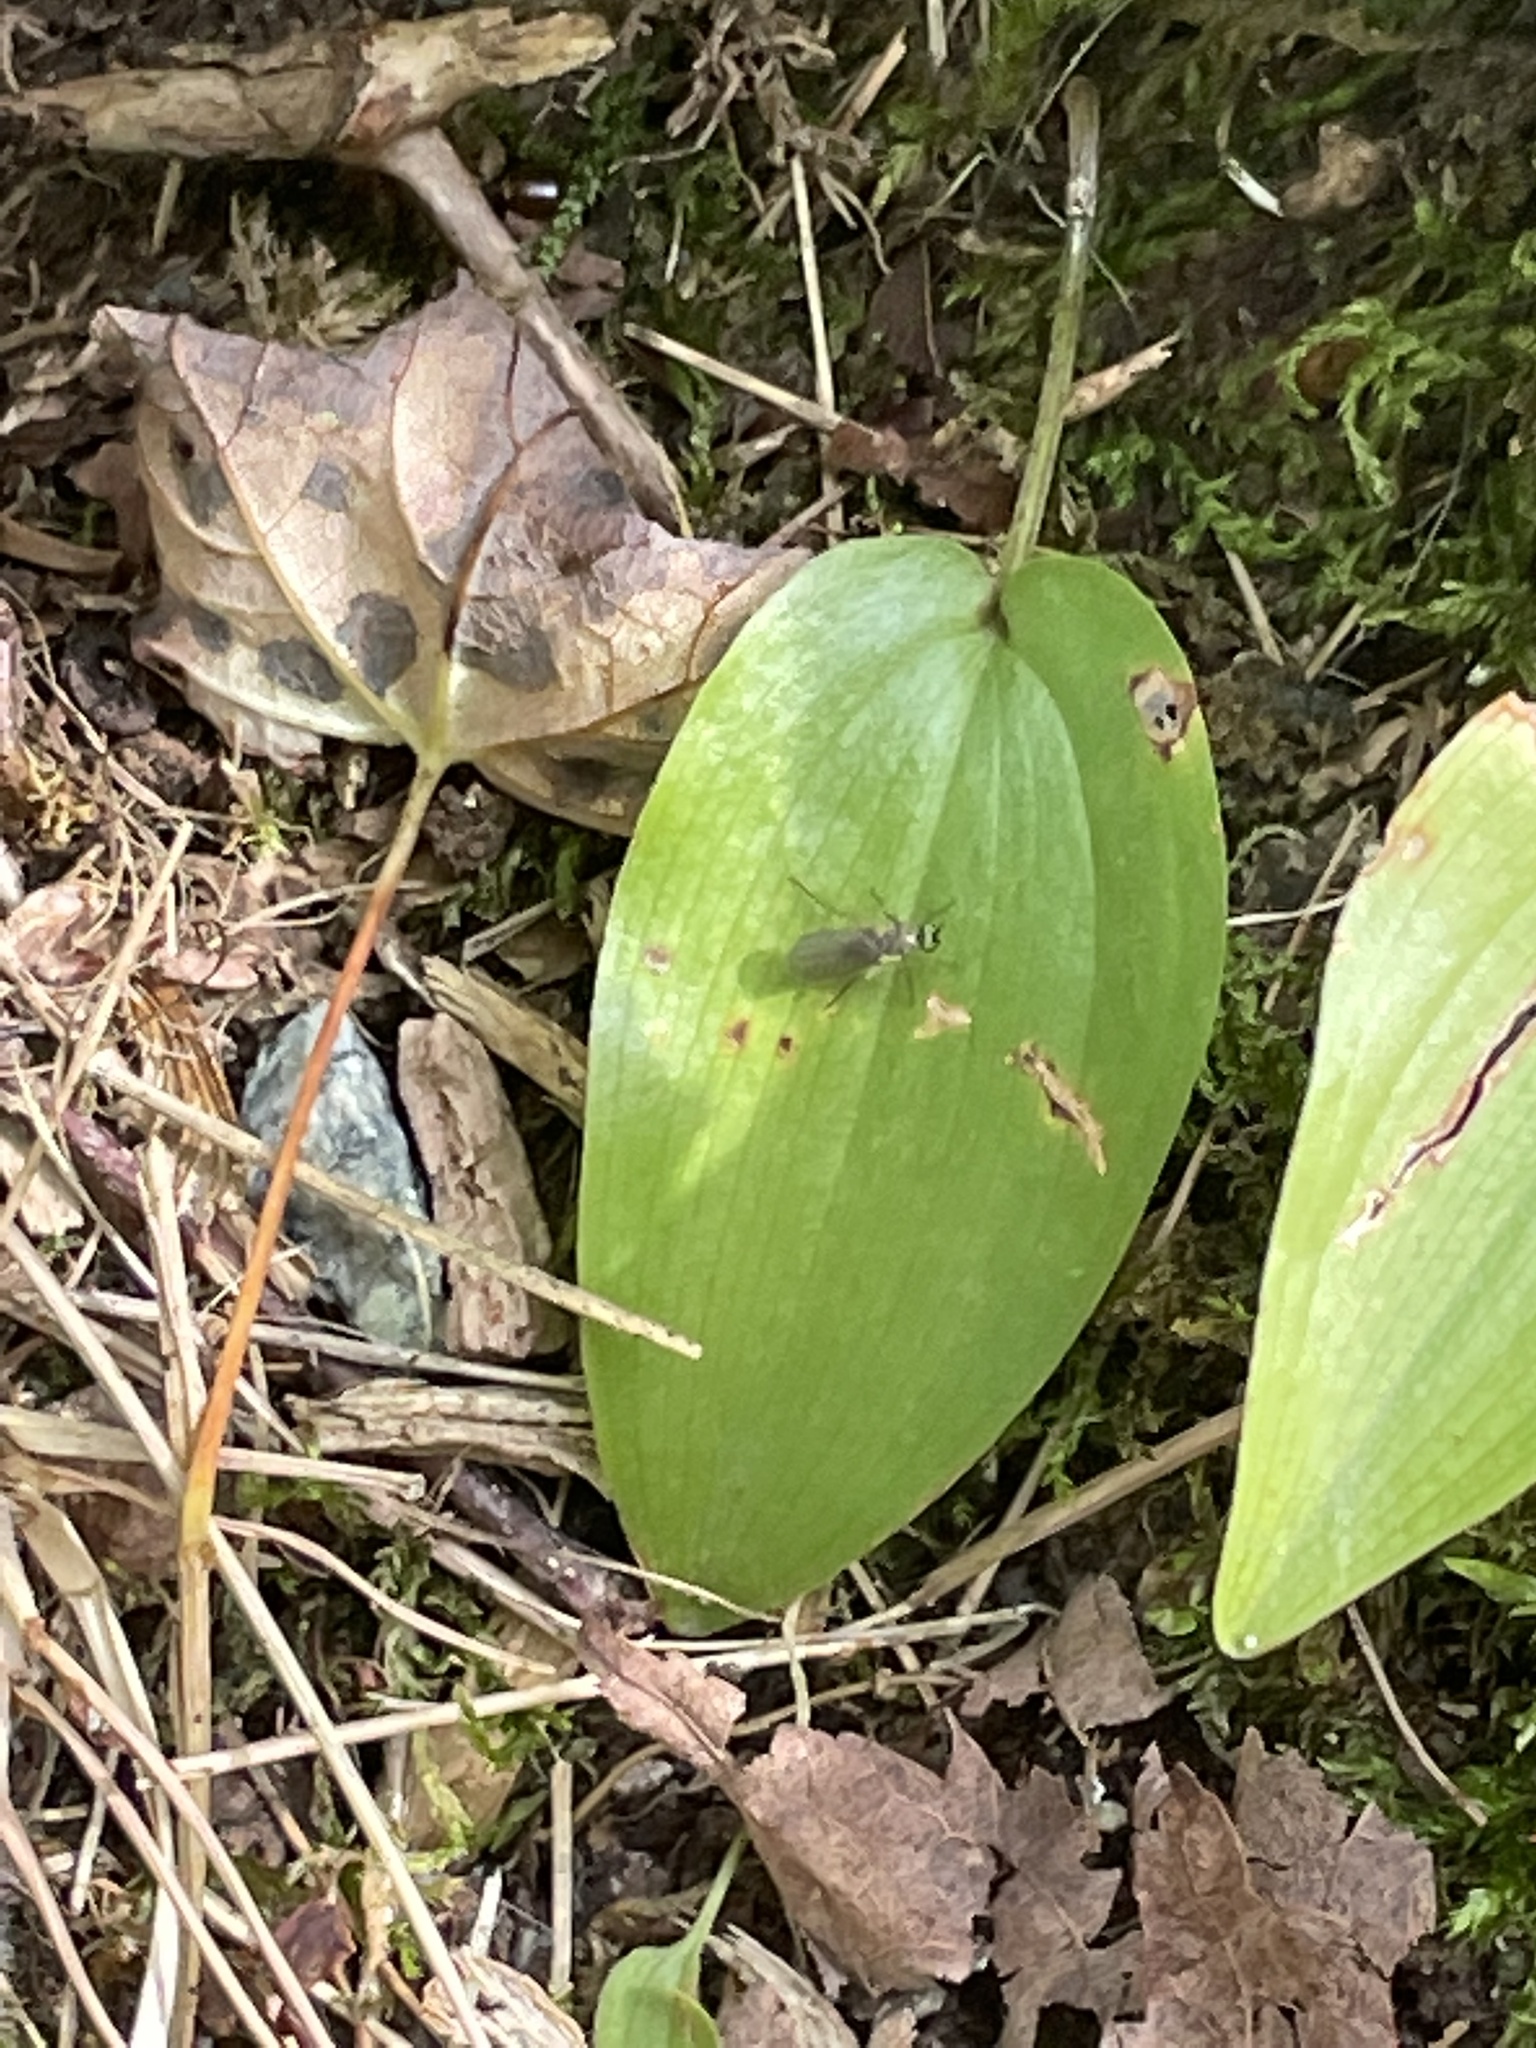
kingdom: Plantae
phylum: Tracheophyta
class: Liliopsida
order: Asparagales
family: Asparagaceae
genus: Maianthemum
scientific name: Maianthemum canadense
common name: False lily-of-the-valley
